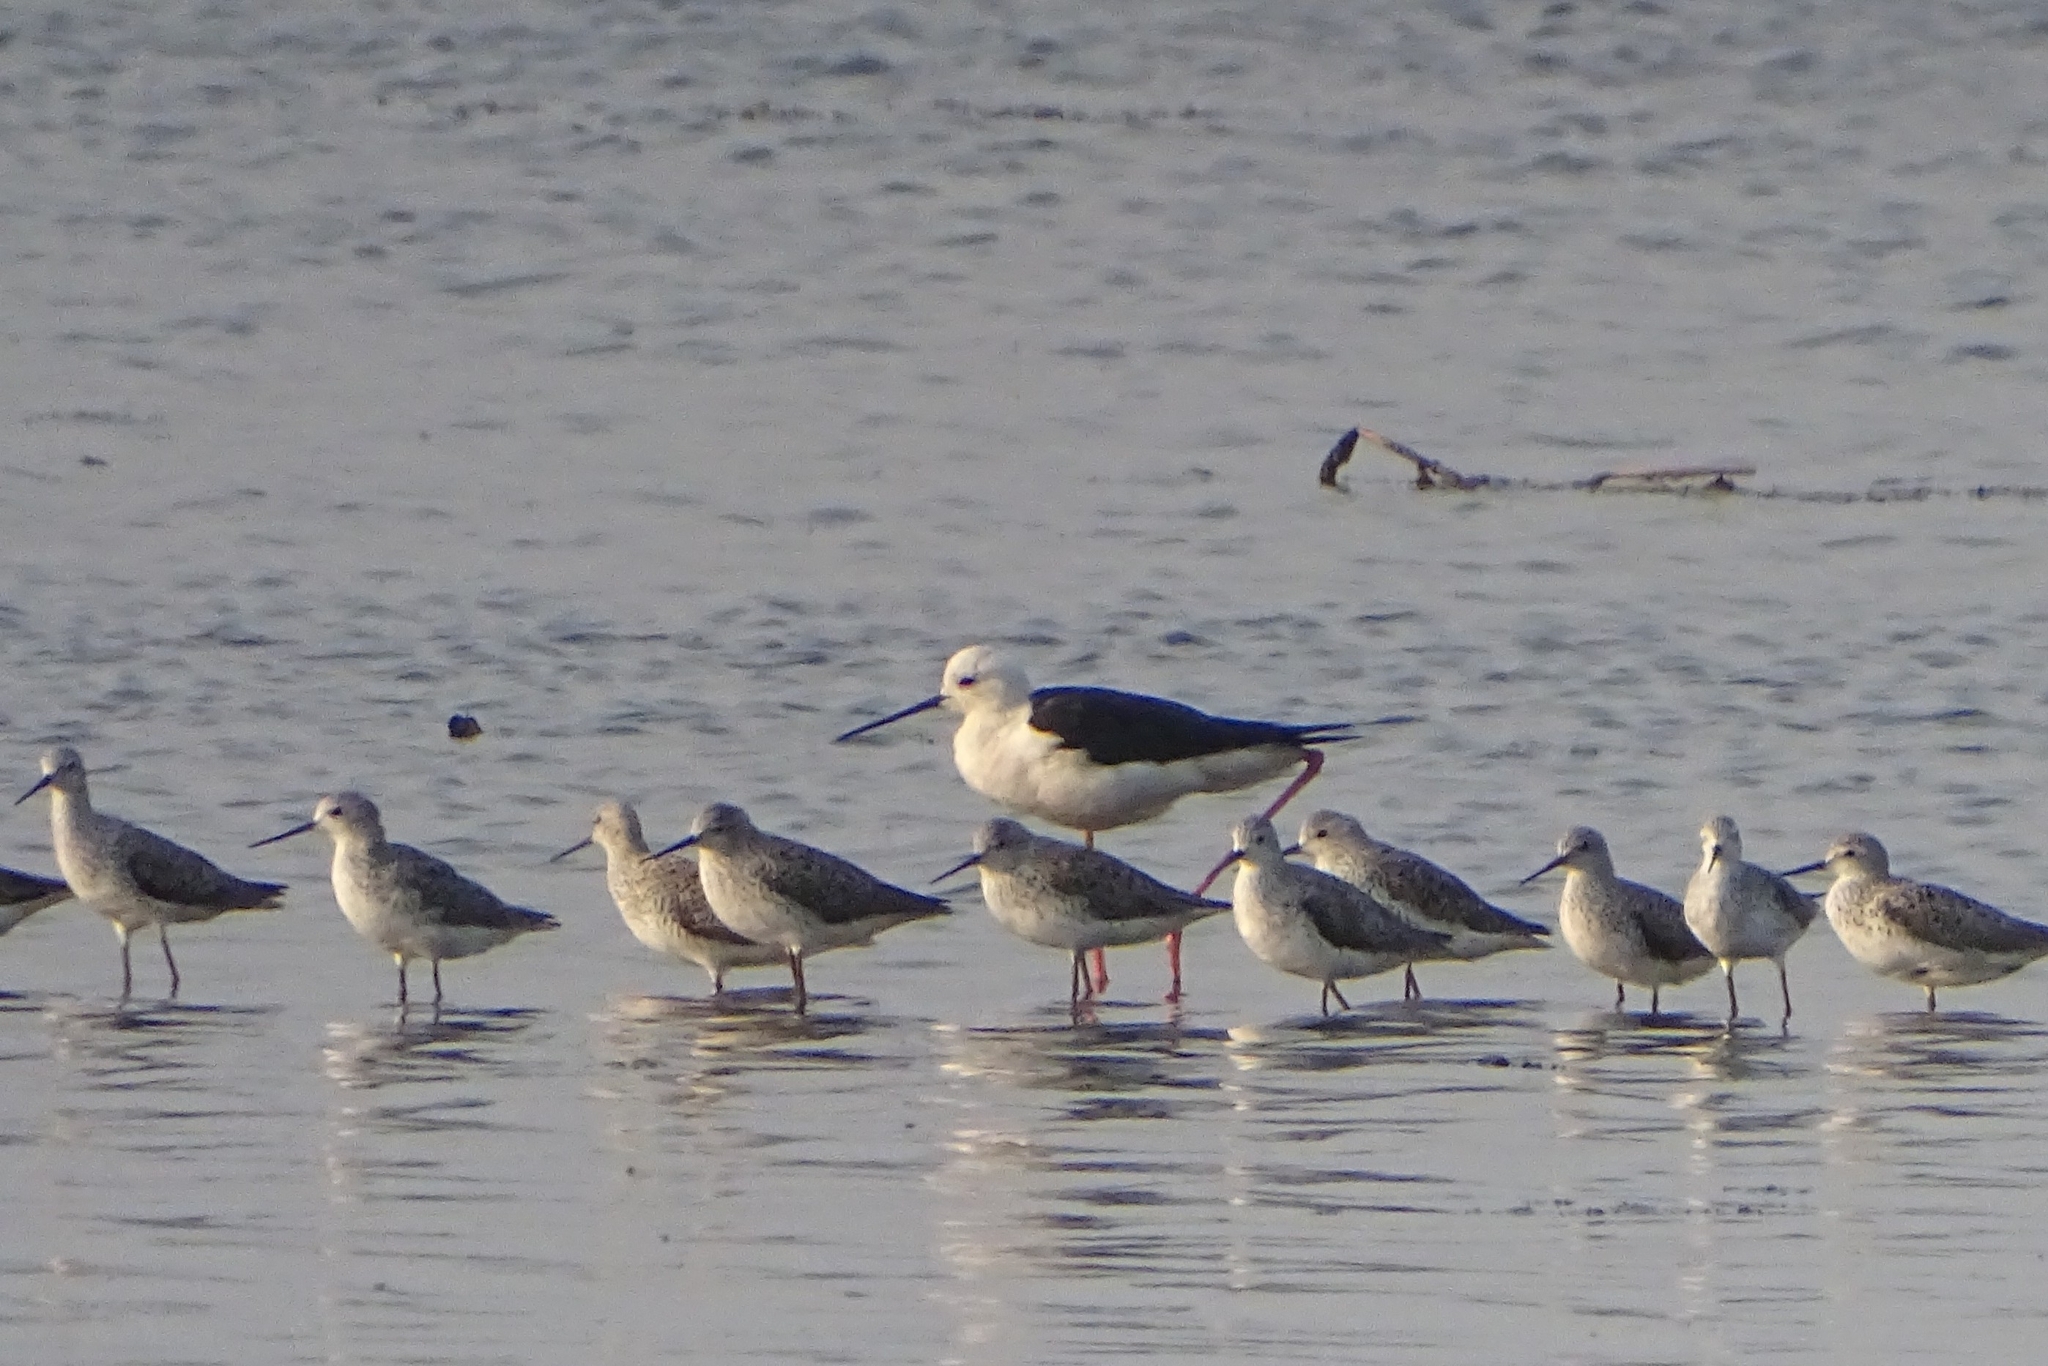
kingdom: Animalia
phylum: Chordata
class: Aves
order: Charadriiformes
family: Scolopacidae
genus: Tringa
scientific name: Tringa stagnatilis
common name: Marsh sandpiper
